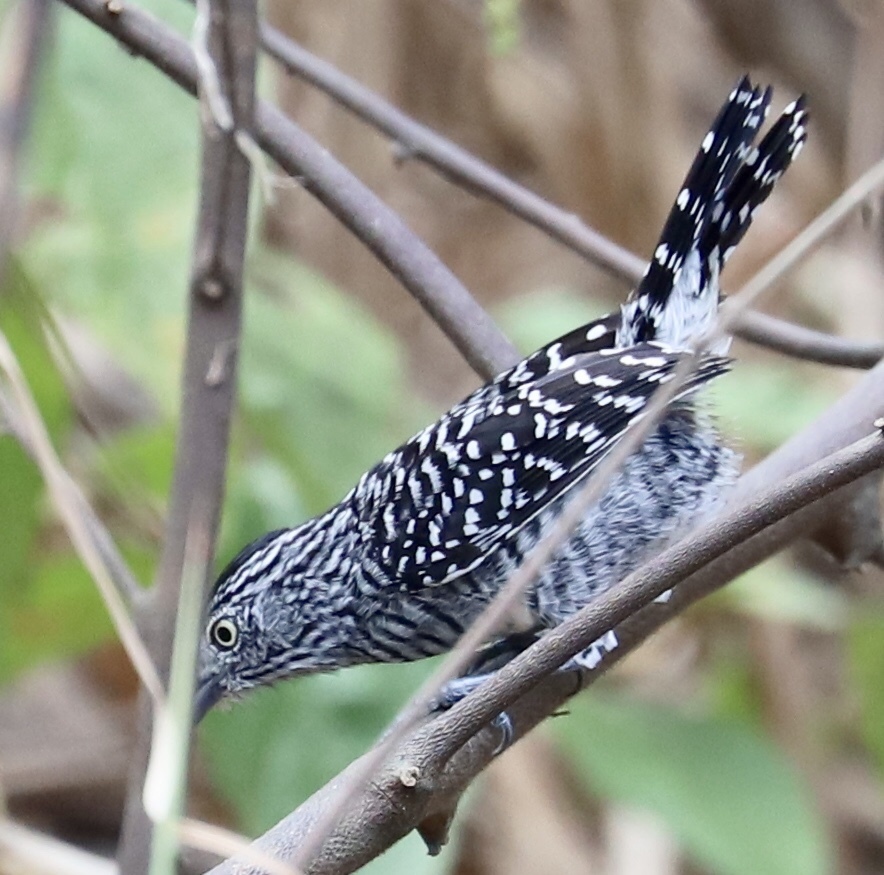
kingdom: Animalia
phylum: Chordata
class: Aves
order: Passeriformes
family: Thamnophilidae
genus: Thamnophilus
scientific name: Thamnophilus doliatus
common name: Barred antshrike
